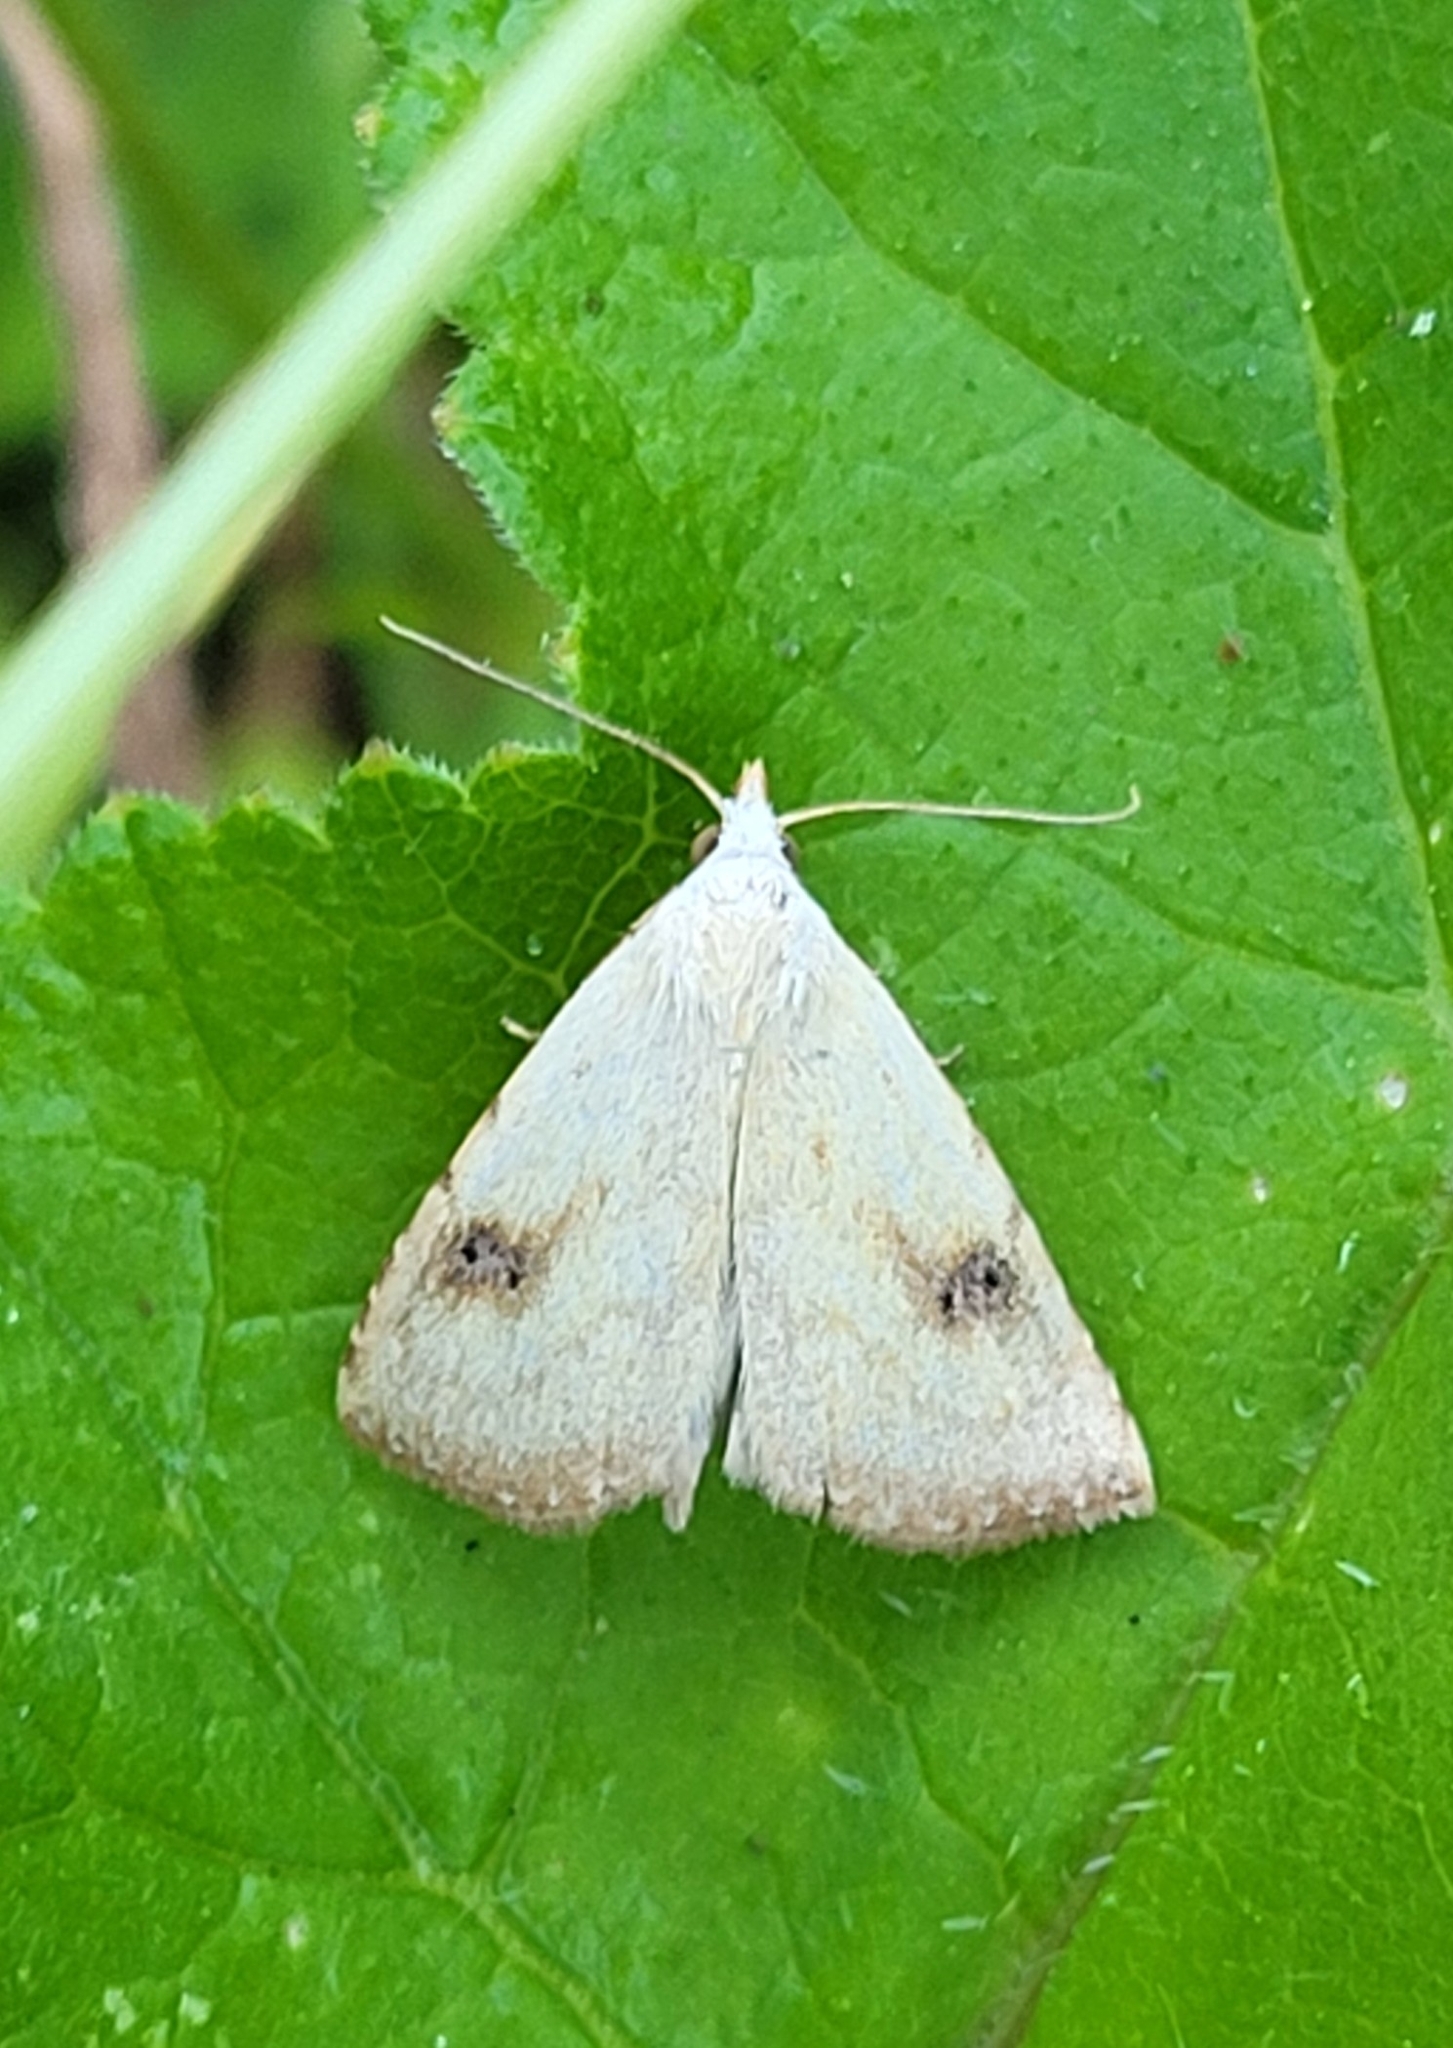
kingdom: Animalia
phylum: Arthropoda
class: Insecta
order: Lepidoptera
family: Erebidae
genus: Rivula
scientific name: Rivula sericealis
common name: Straw dot
